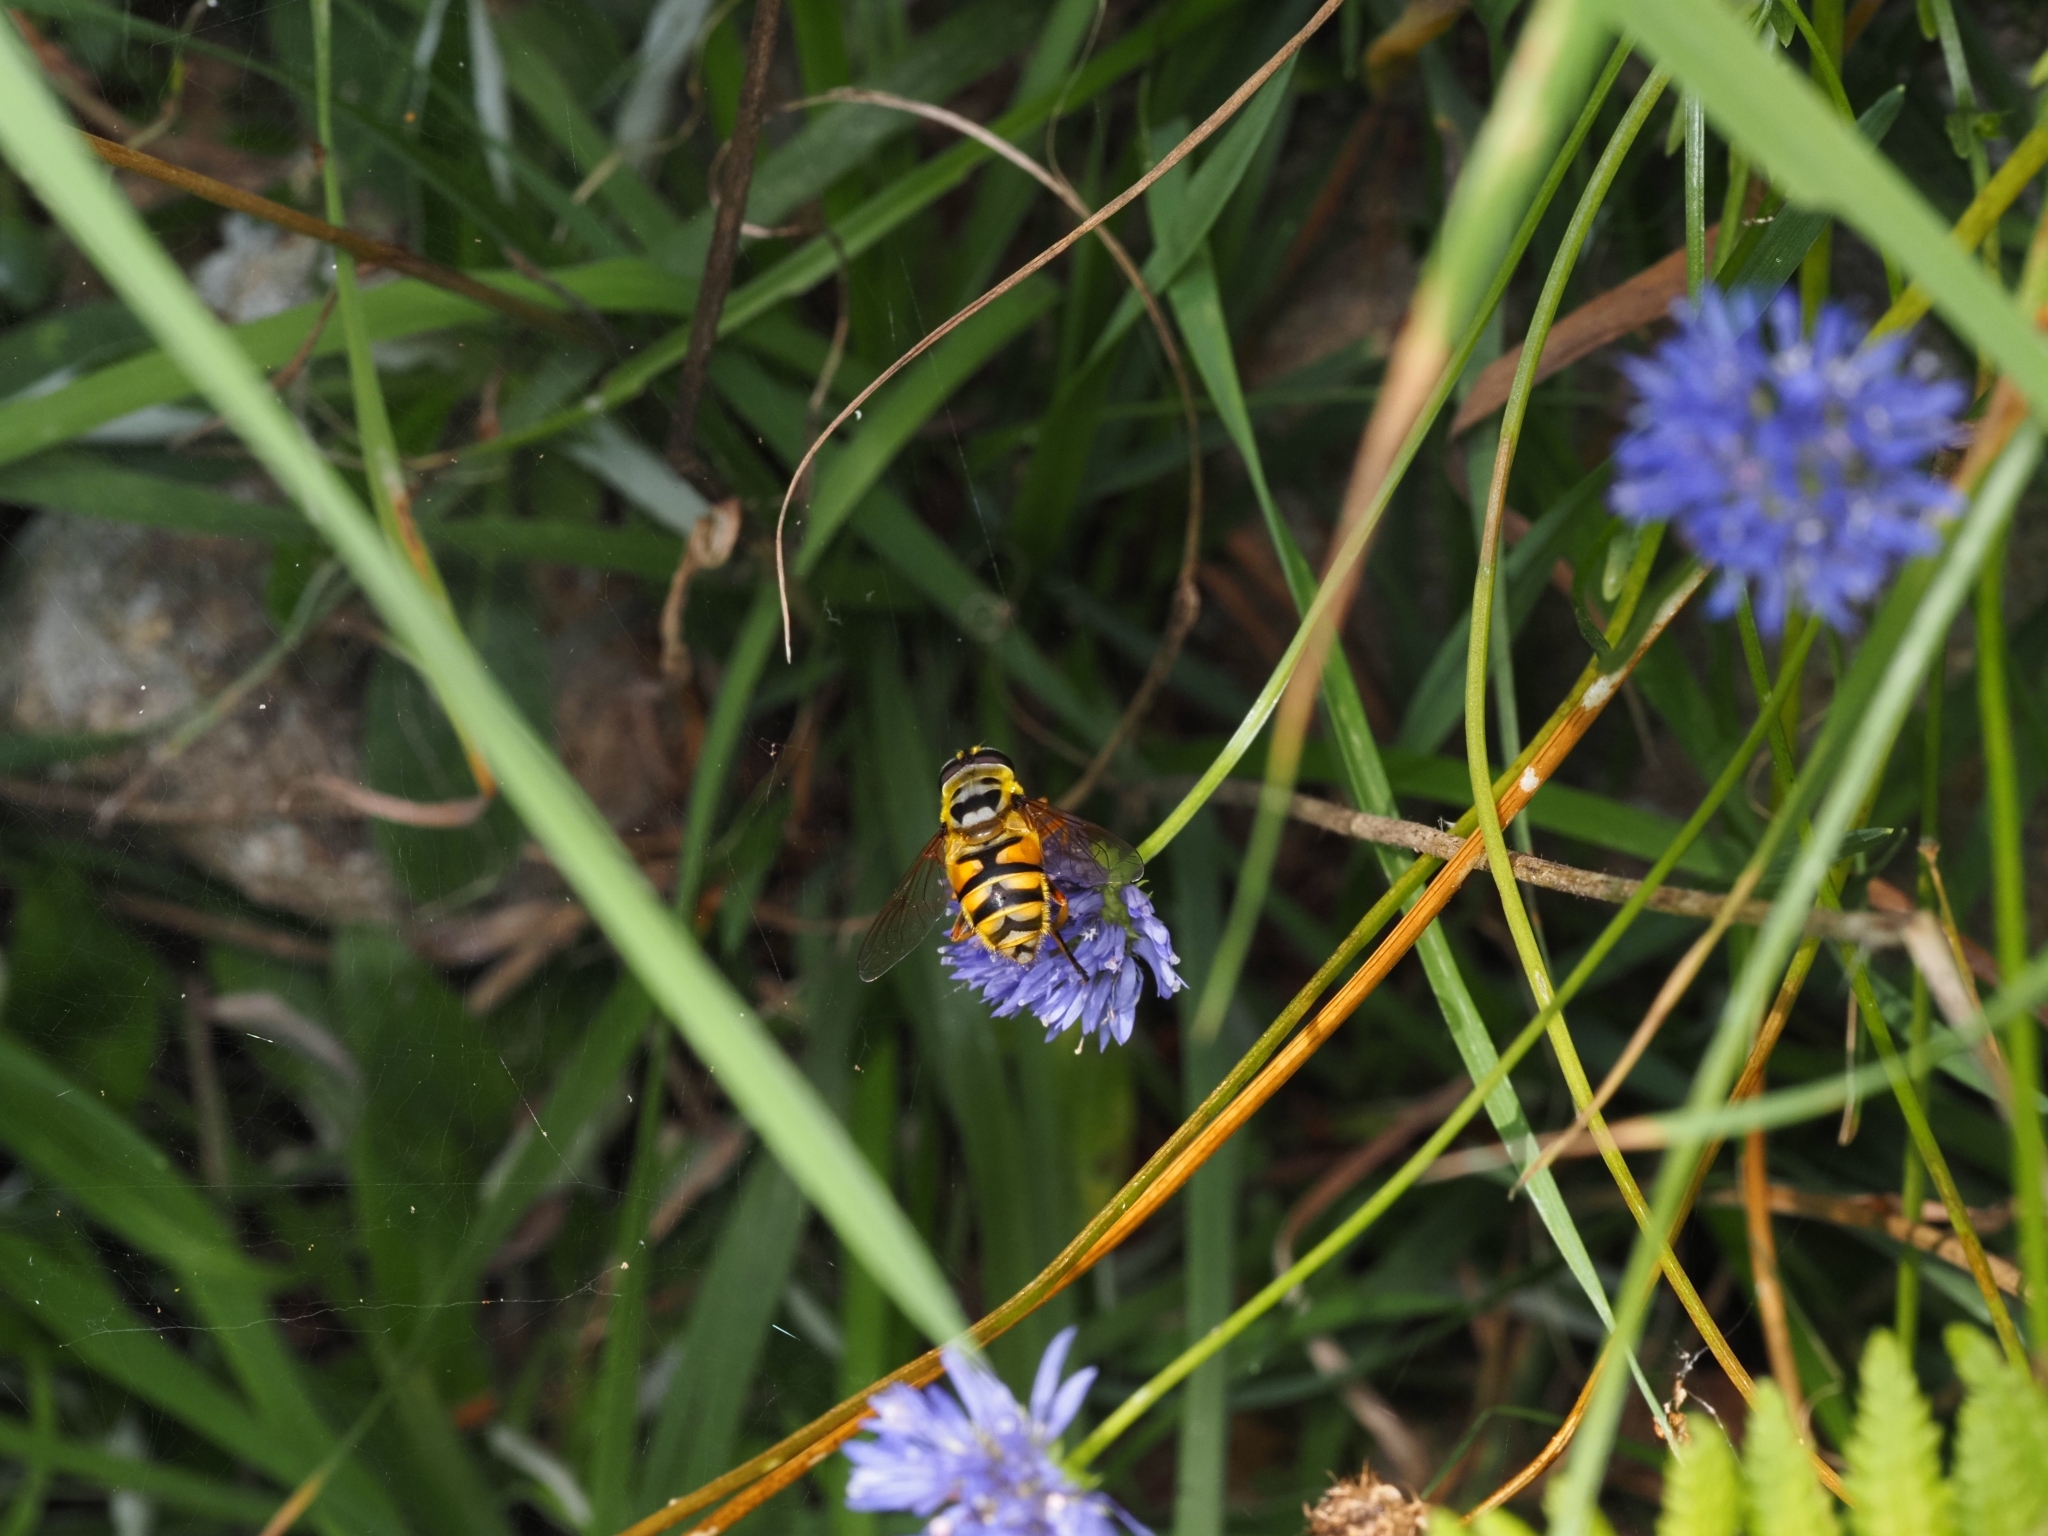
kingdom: Animalia
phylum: Arthropoda
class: Insecta
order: Diptera
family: Syrphidae
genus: Myathropa
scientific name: Myathropa florea
